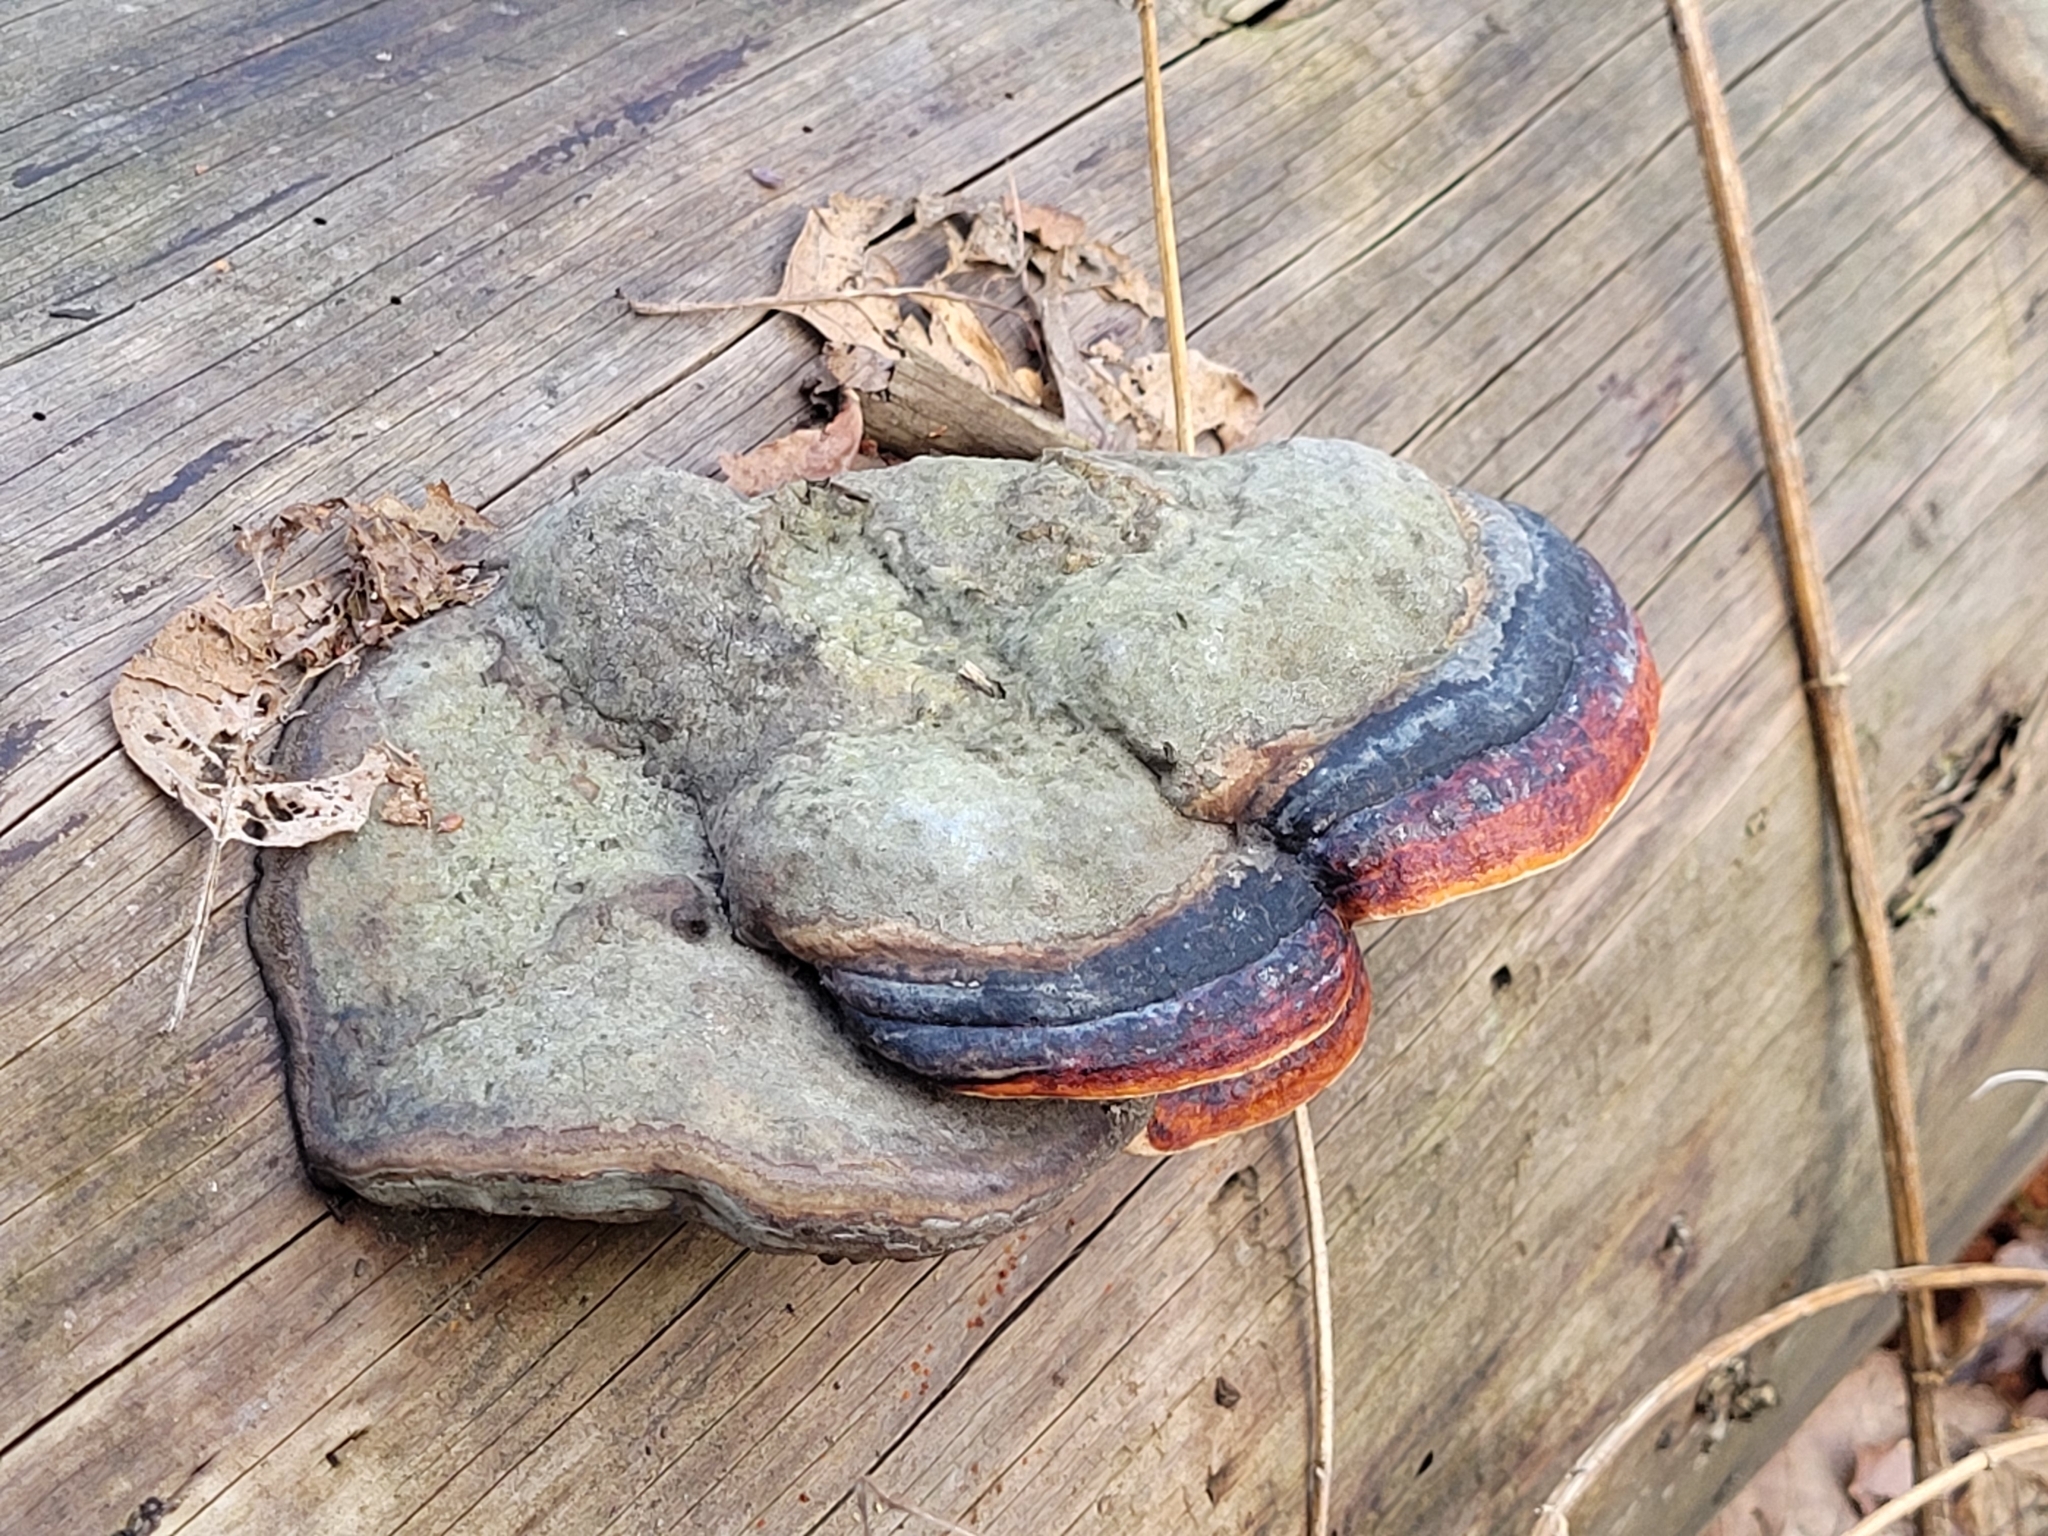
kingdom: Fungi
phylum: Basidiomycota
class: Agaricomycetes
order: Polyporales
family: Fomitopsidaceae
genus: Fomitopsis
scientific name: Fomitopsis pinicola
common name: Red-belted bracket
